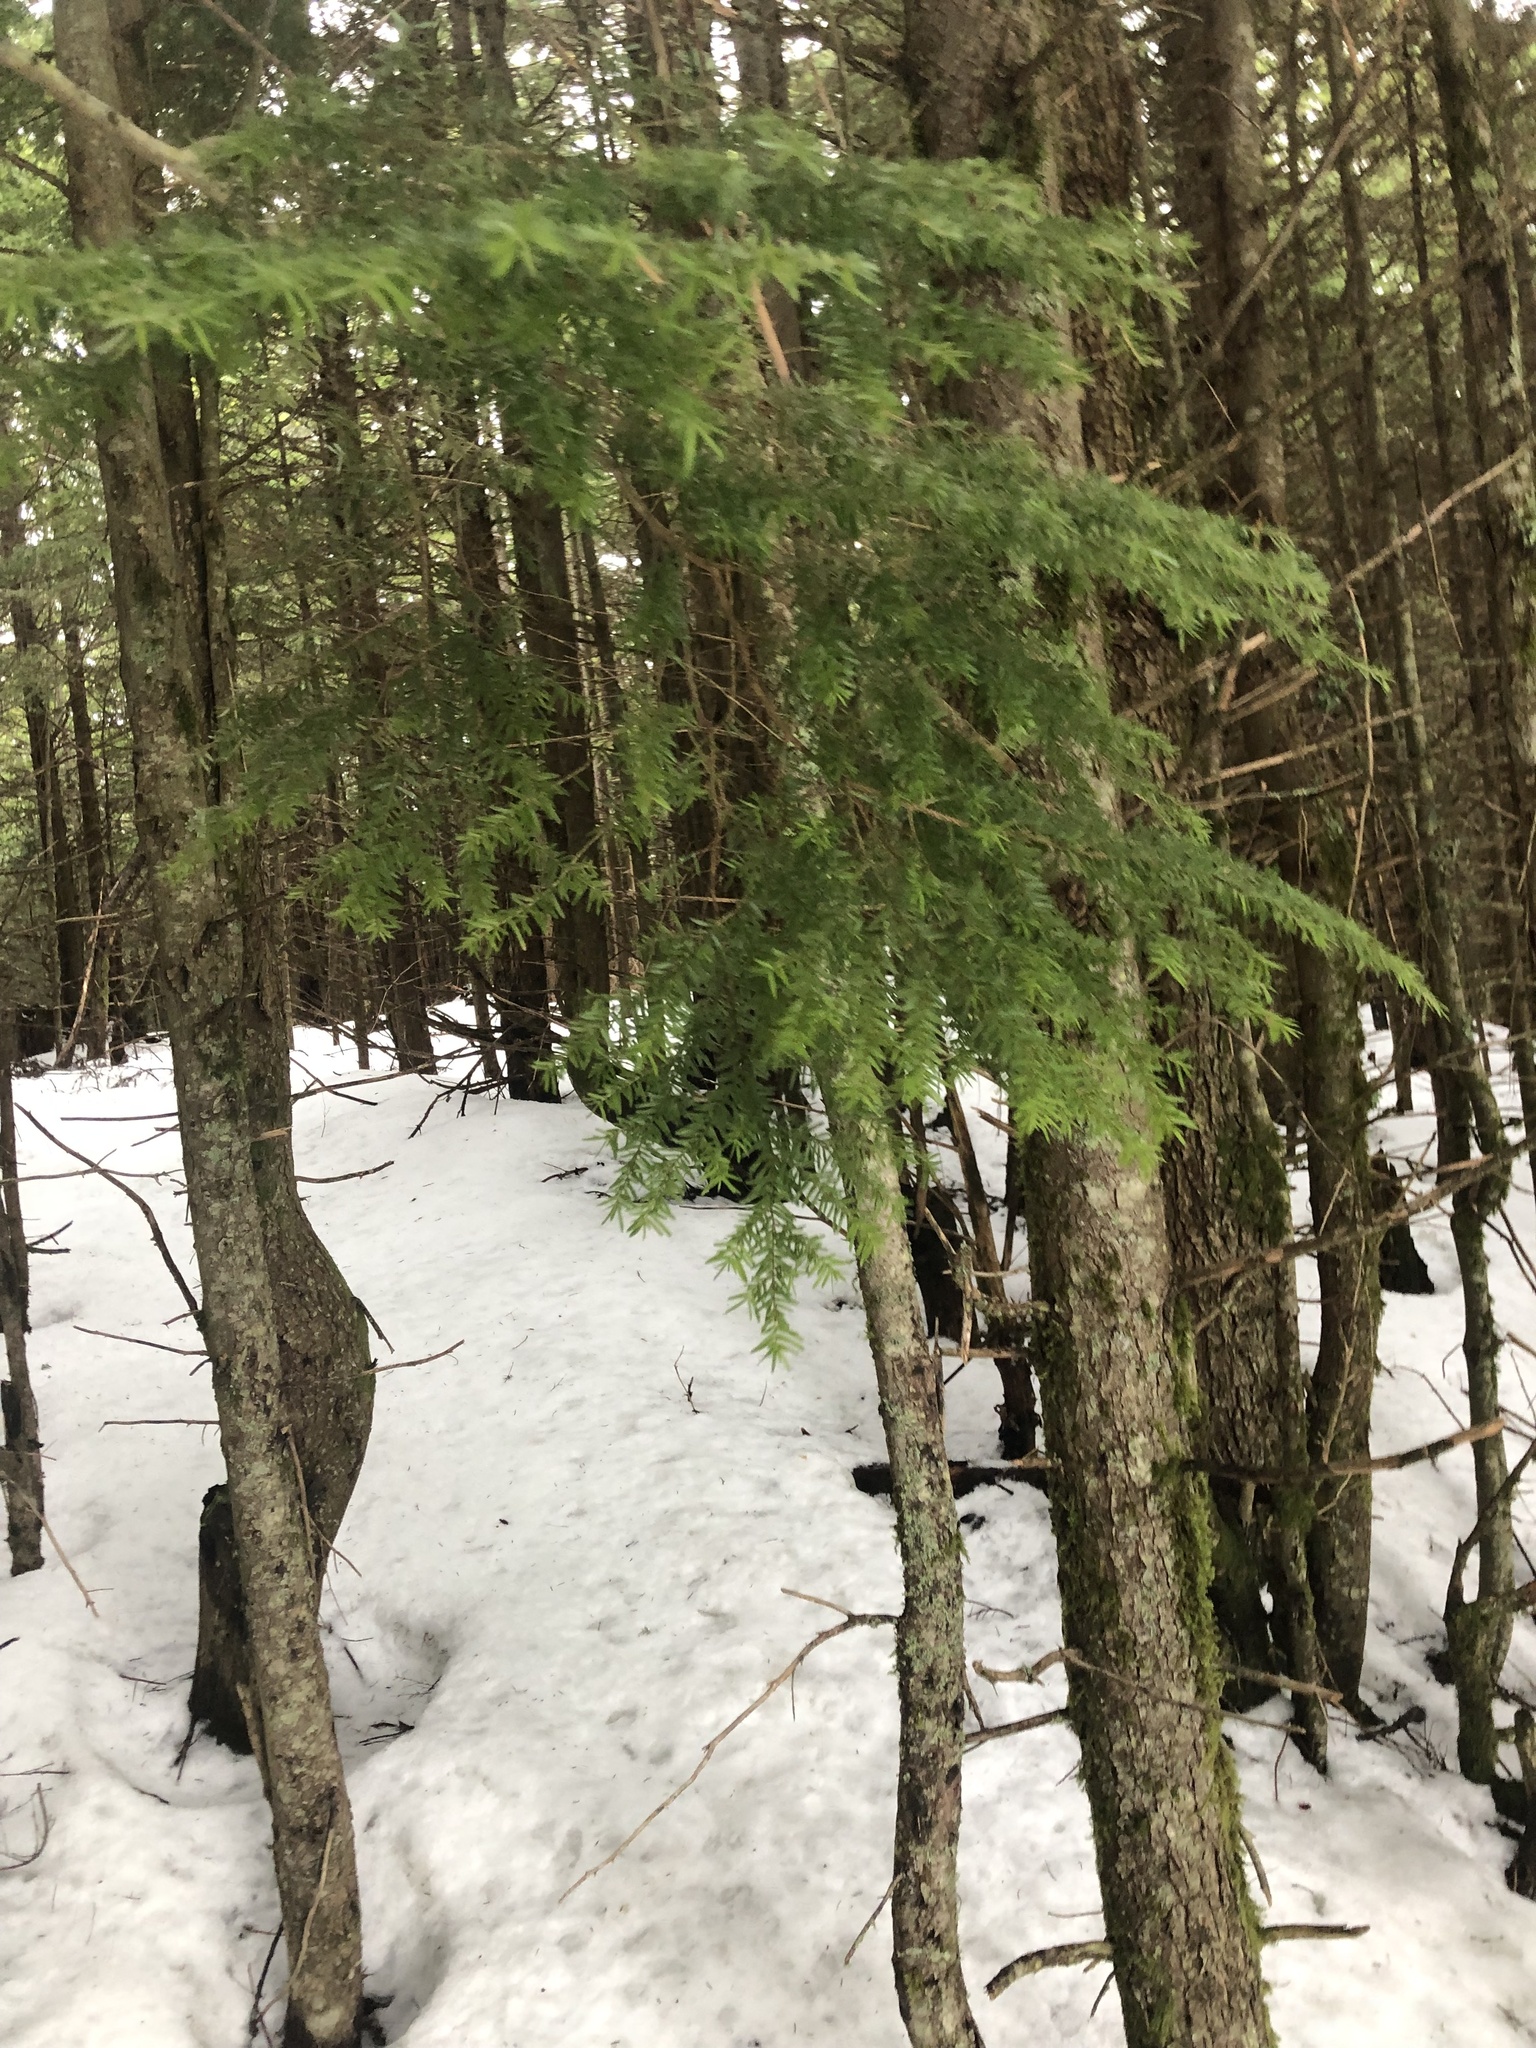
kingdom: Plantae
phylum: Tracheophyta
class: Pinopsida
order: Pinales
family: Pinaceae
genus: Tsuga
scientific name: Tsuga heterophylla
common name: Western hemlock
